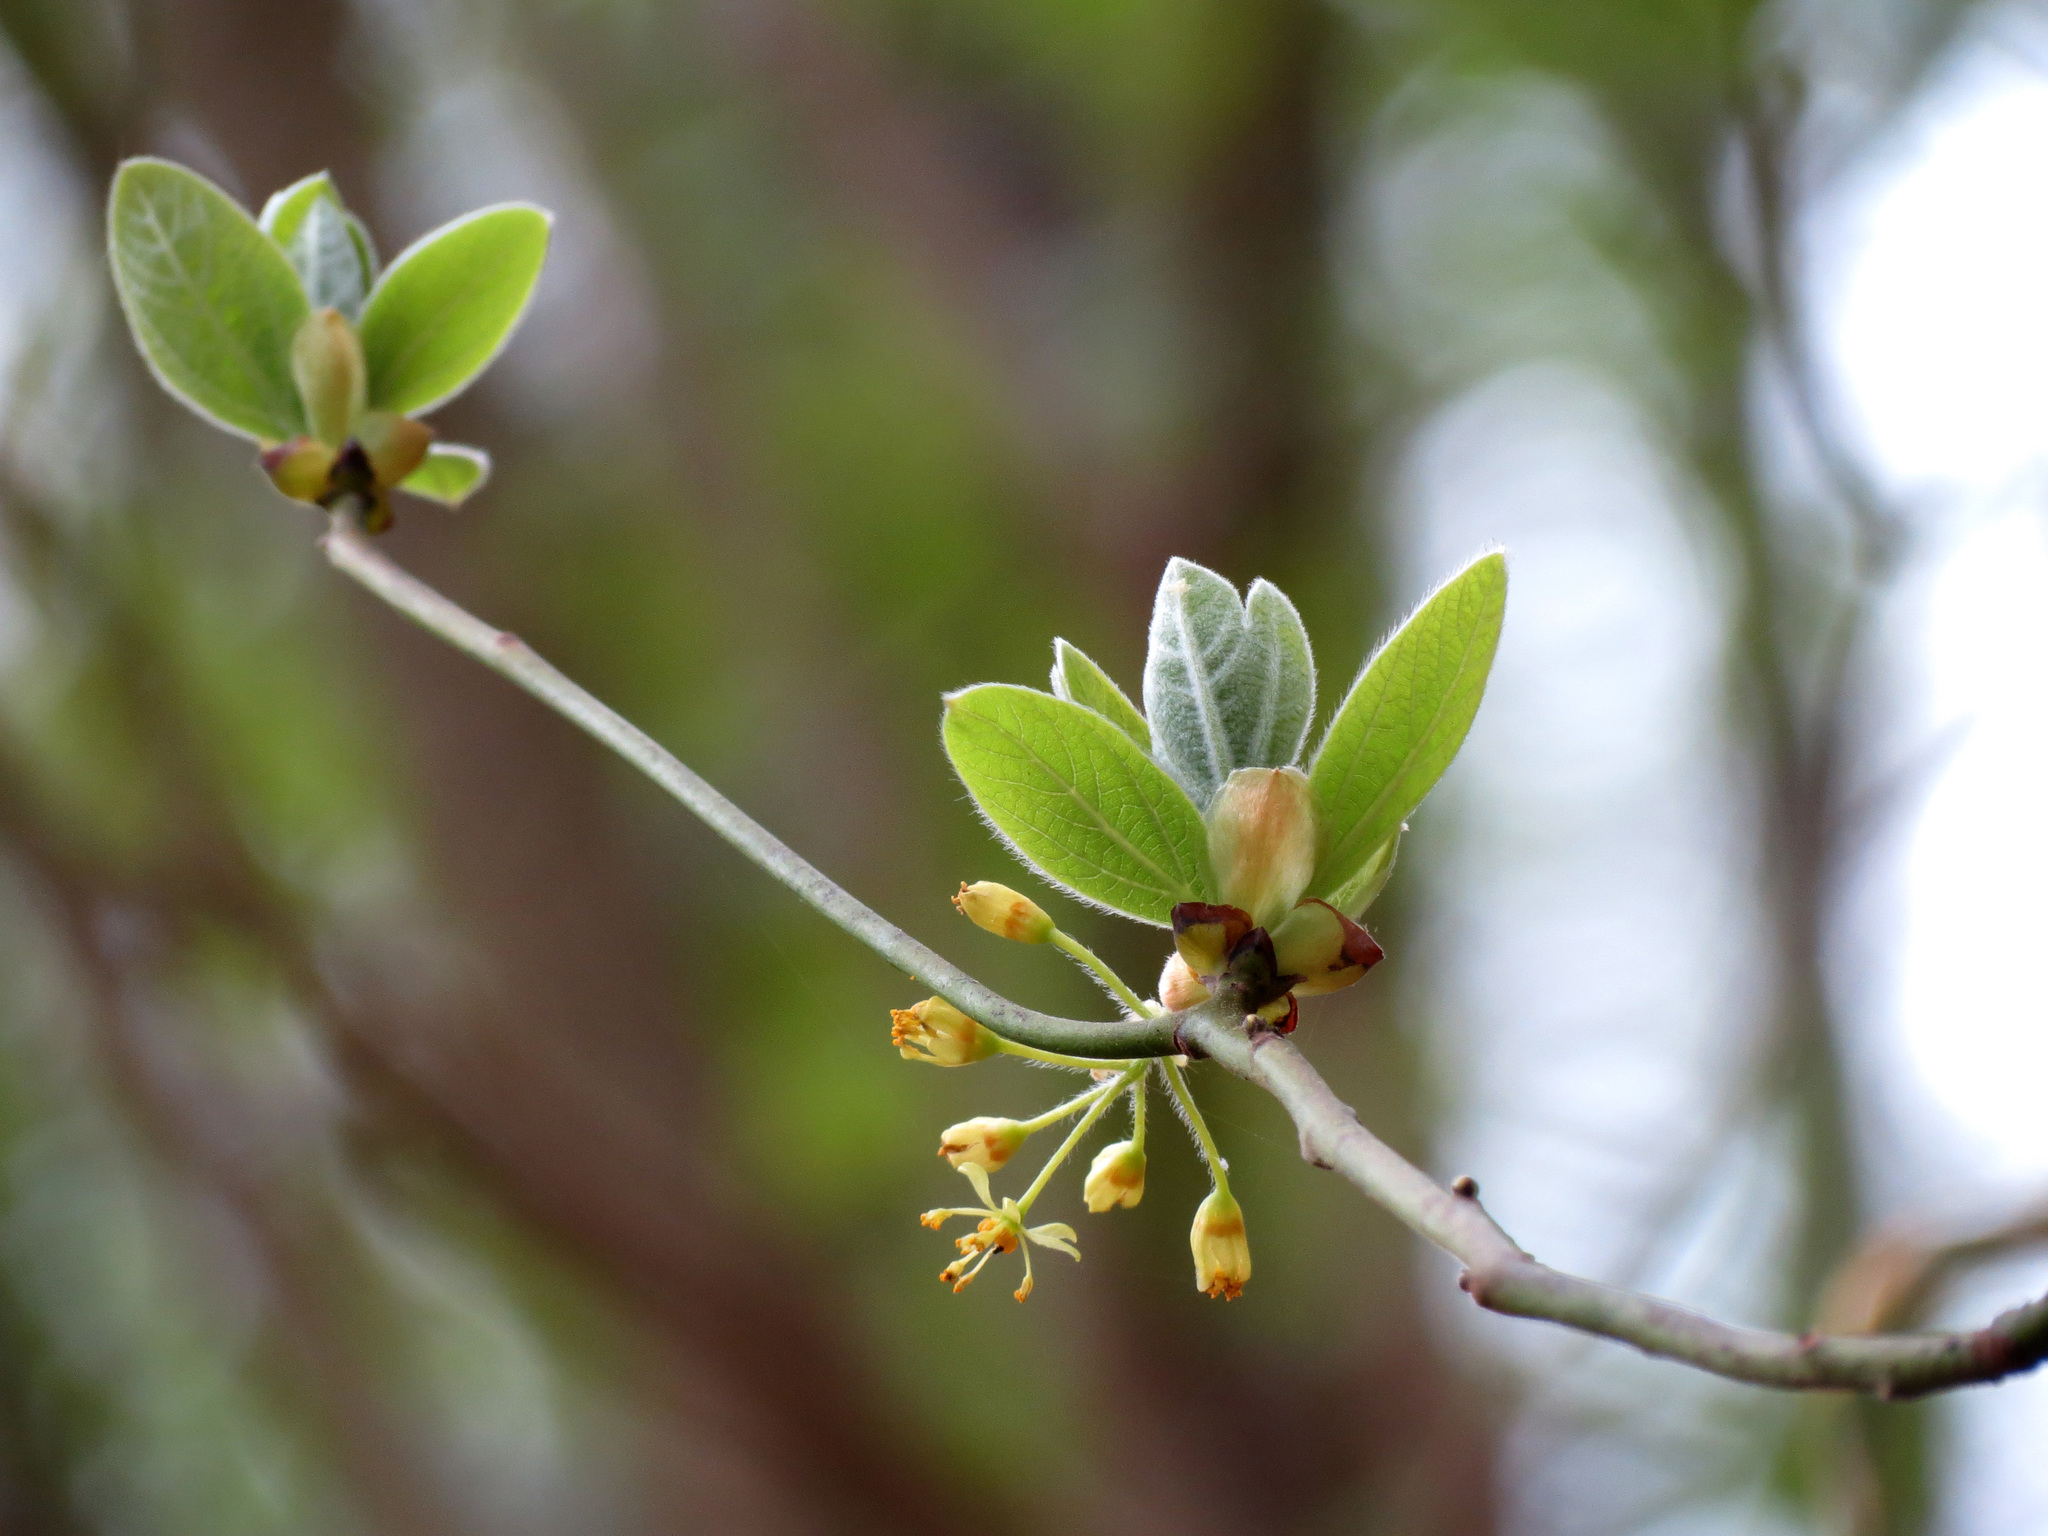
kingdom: Plantae
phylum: Tracheophyta
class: Magnoliopsida
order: Laurales
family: Lauraceae
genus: Sassafras
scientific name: Sassafras albidum
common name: Sassafras
